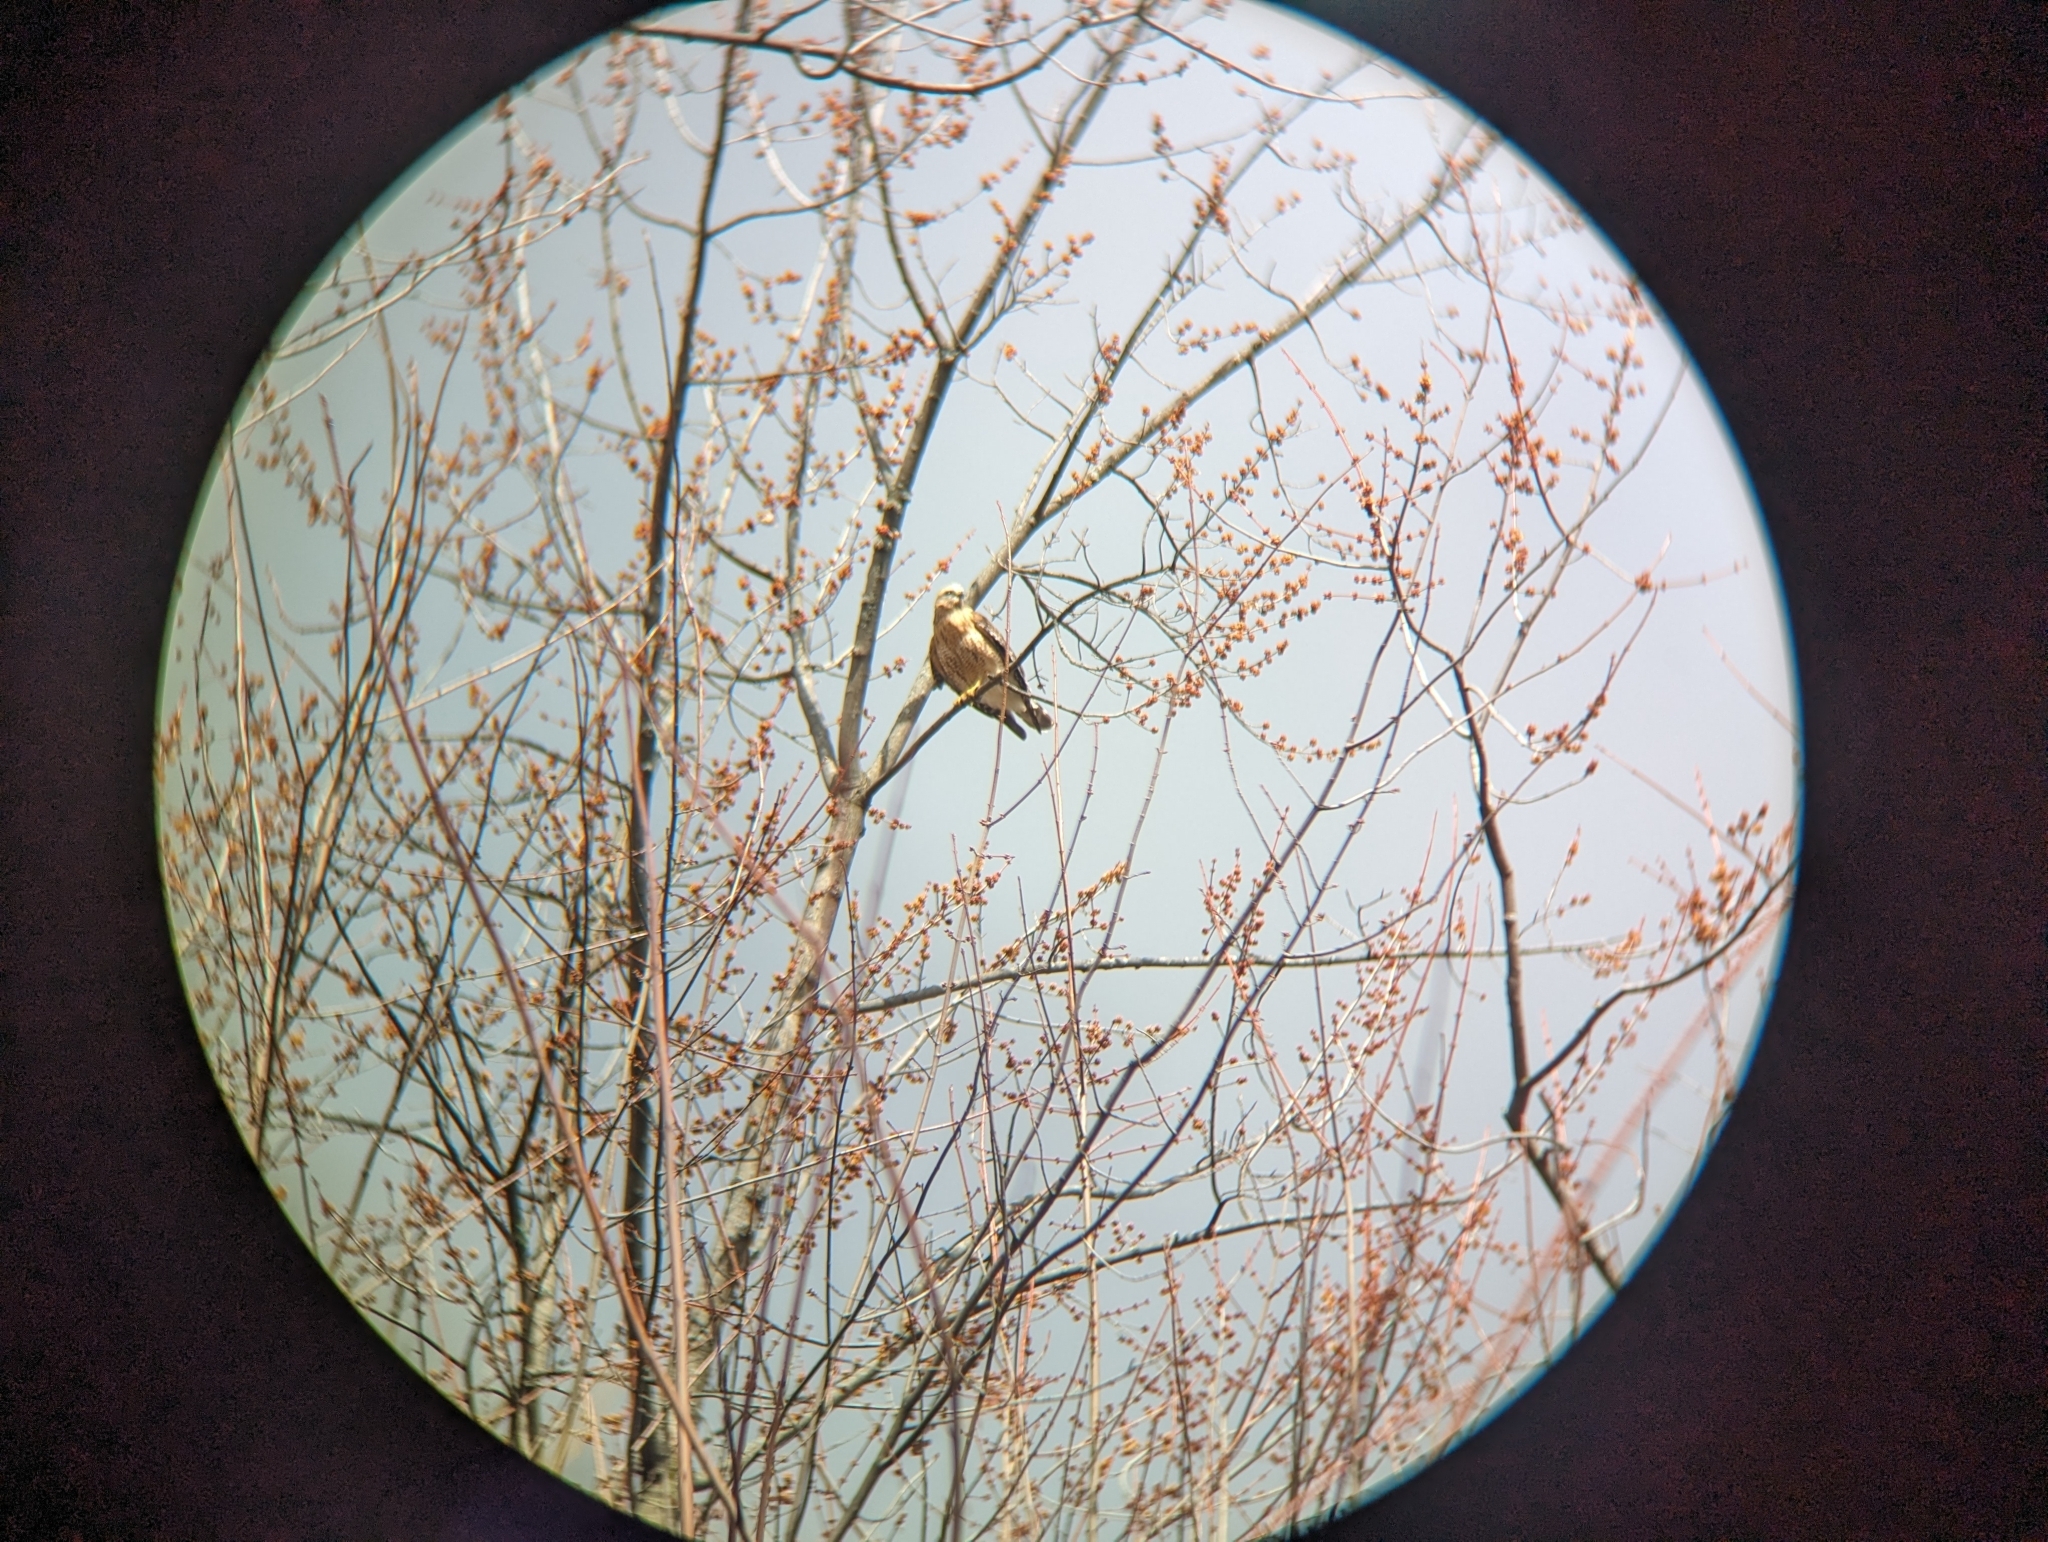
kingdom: Animalia
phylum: Chordata
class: Aves
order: Accipitriformes
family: Accipitridae
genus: Buteo
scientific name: Buteo lineatus
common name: Red-shouldered hawk
